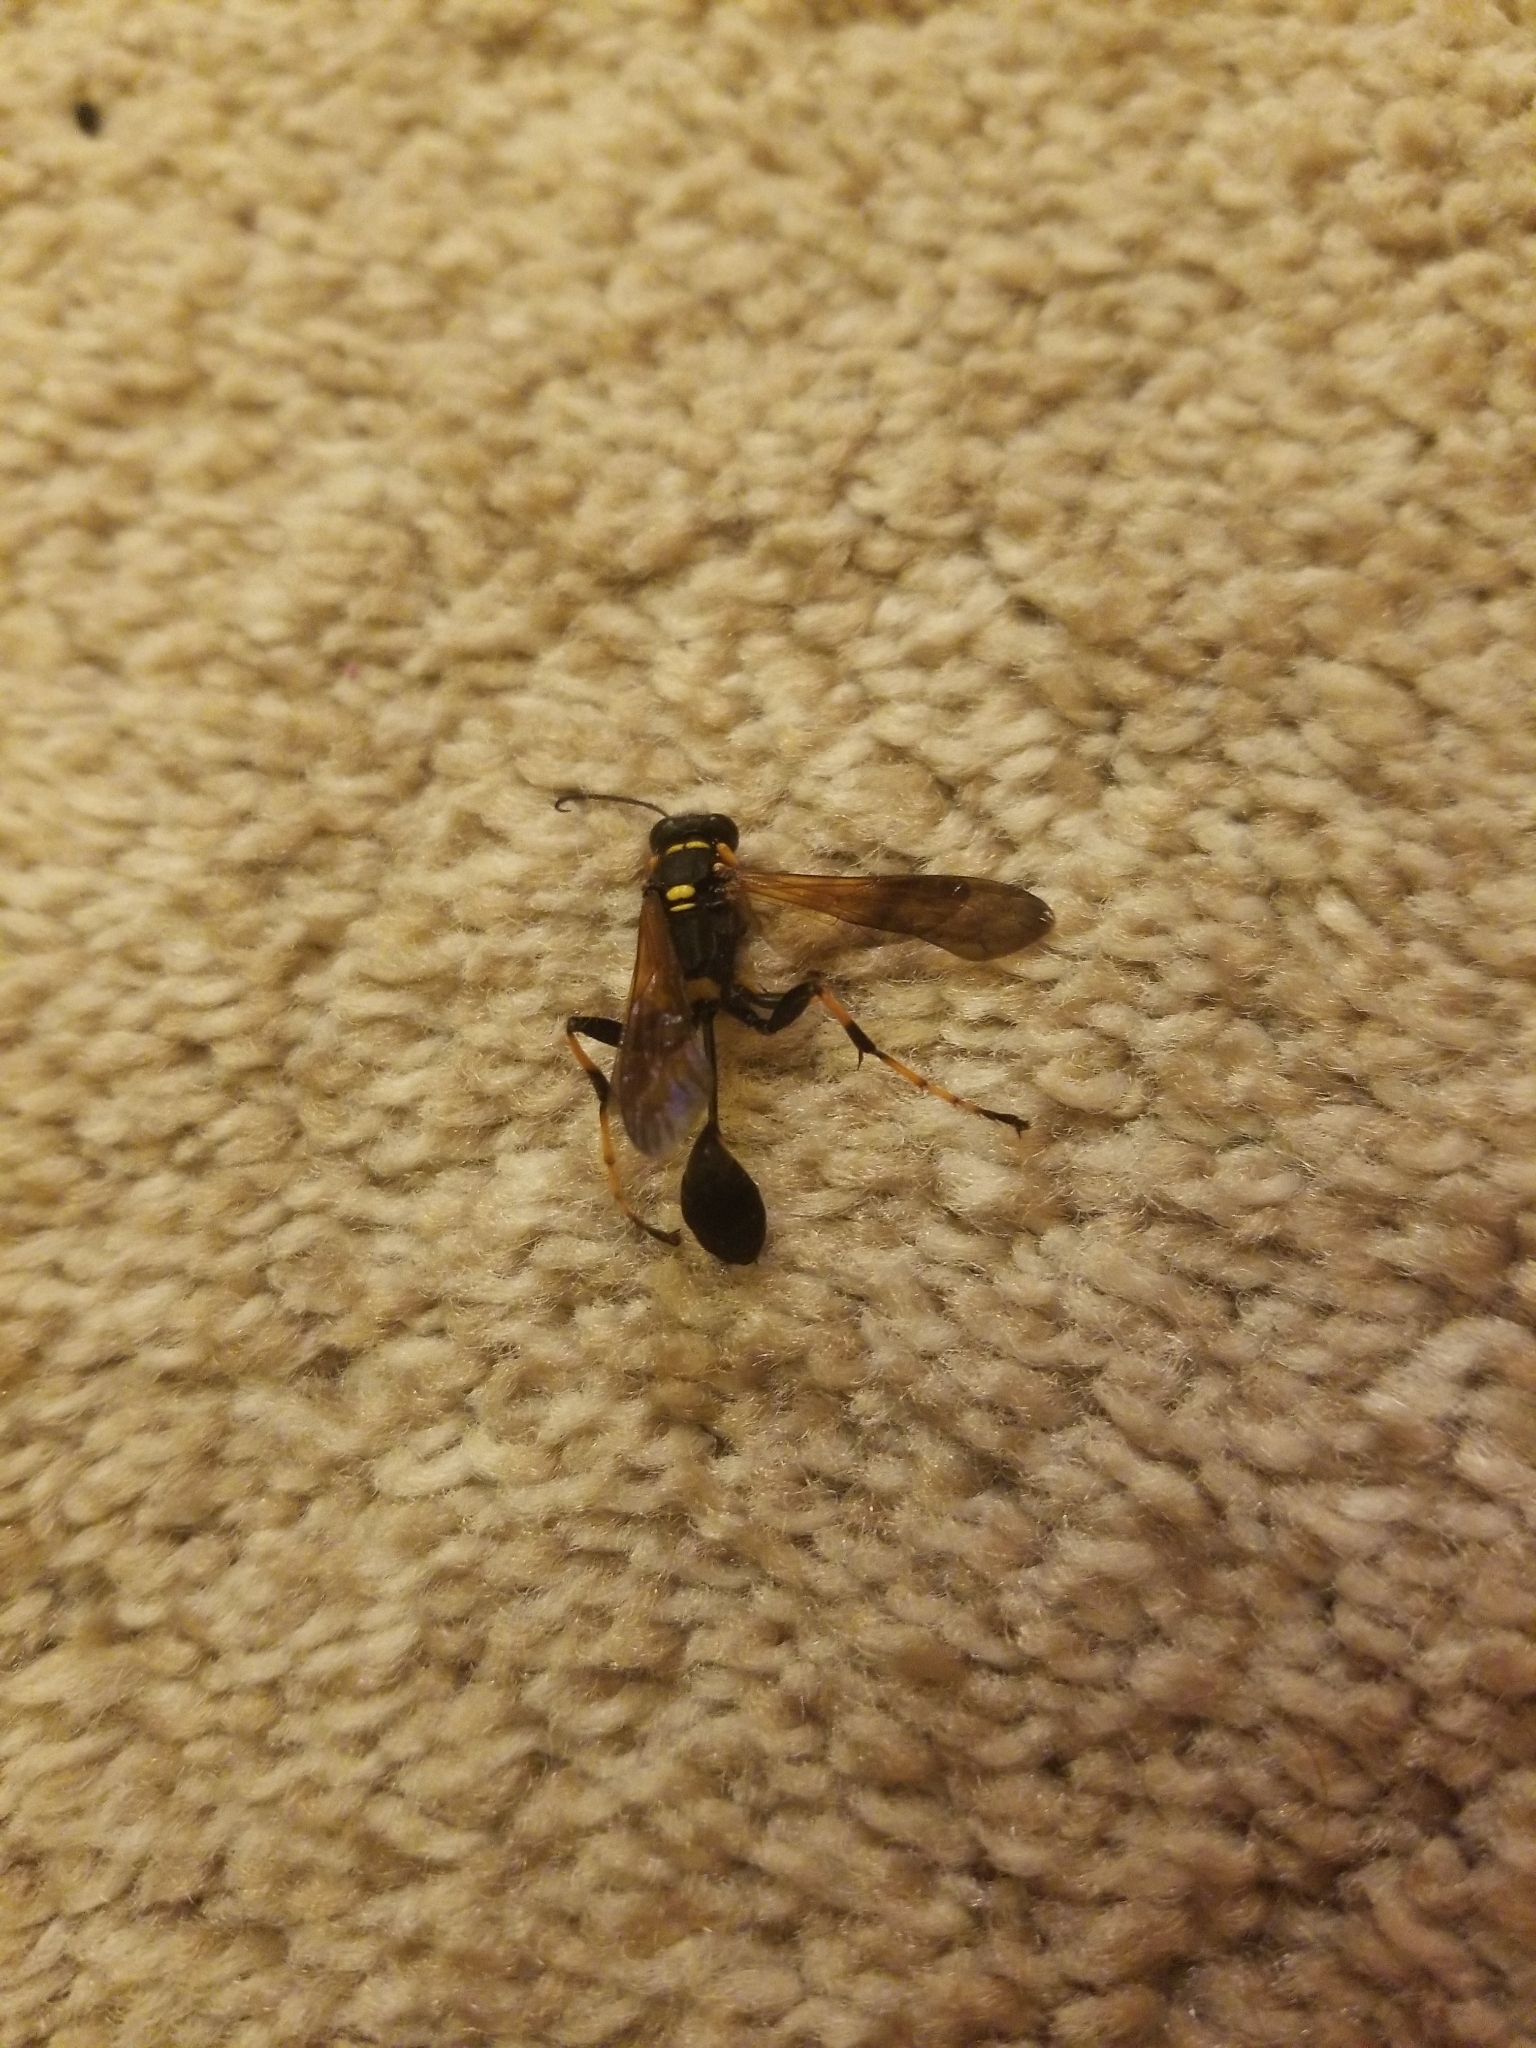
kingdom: Animalia
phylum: Arthropoda
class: Insecta
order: Hymenoptera
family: Sphecidae
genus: Sceliphron
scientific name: Sceliphron caementarium
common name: Mud dauber
